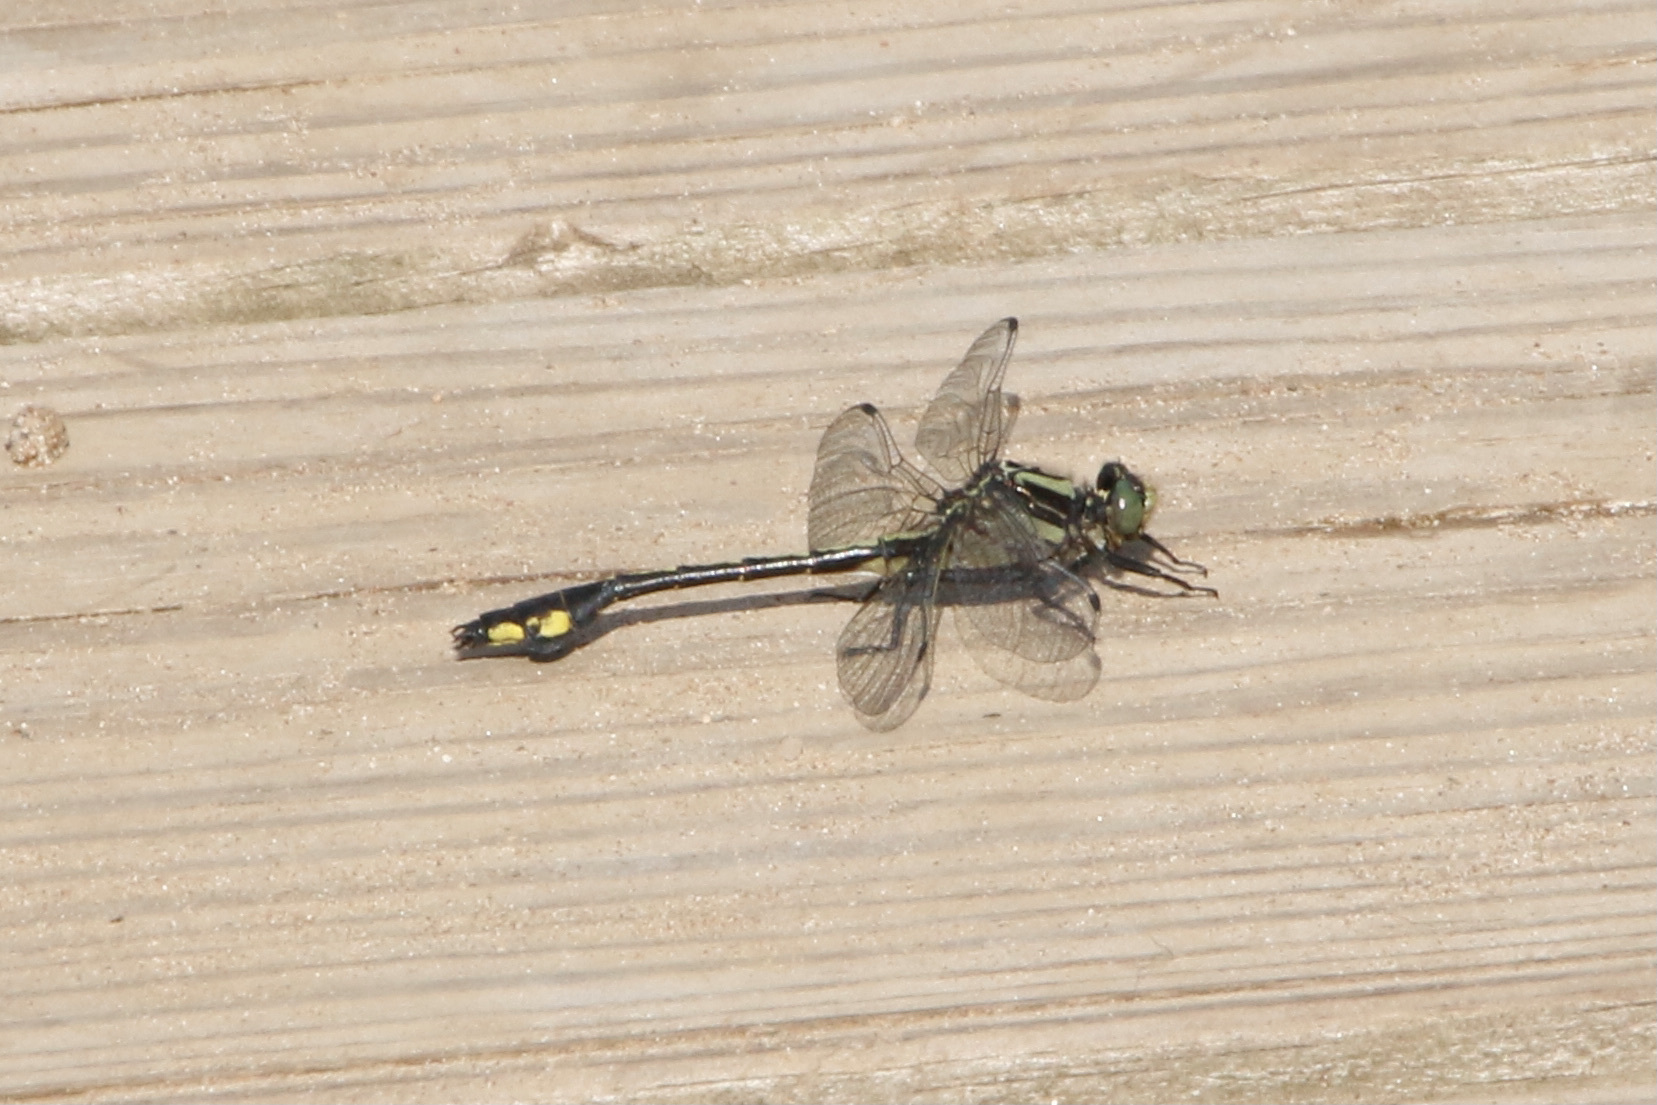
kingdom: Animalia
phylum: Arthropoda
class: Insecta
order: Odonata
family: Gomphidae
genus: Gomphurus
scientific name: Gomphurus ventricosus
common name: Skillet clubtail
